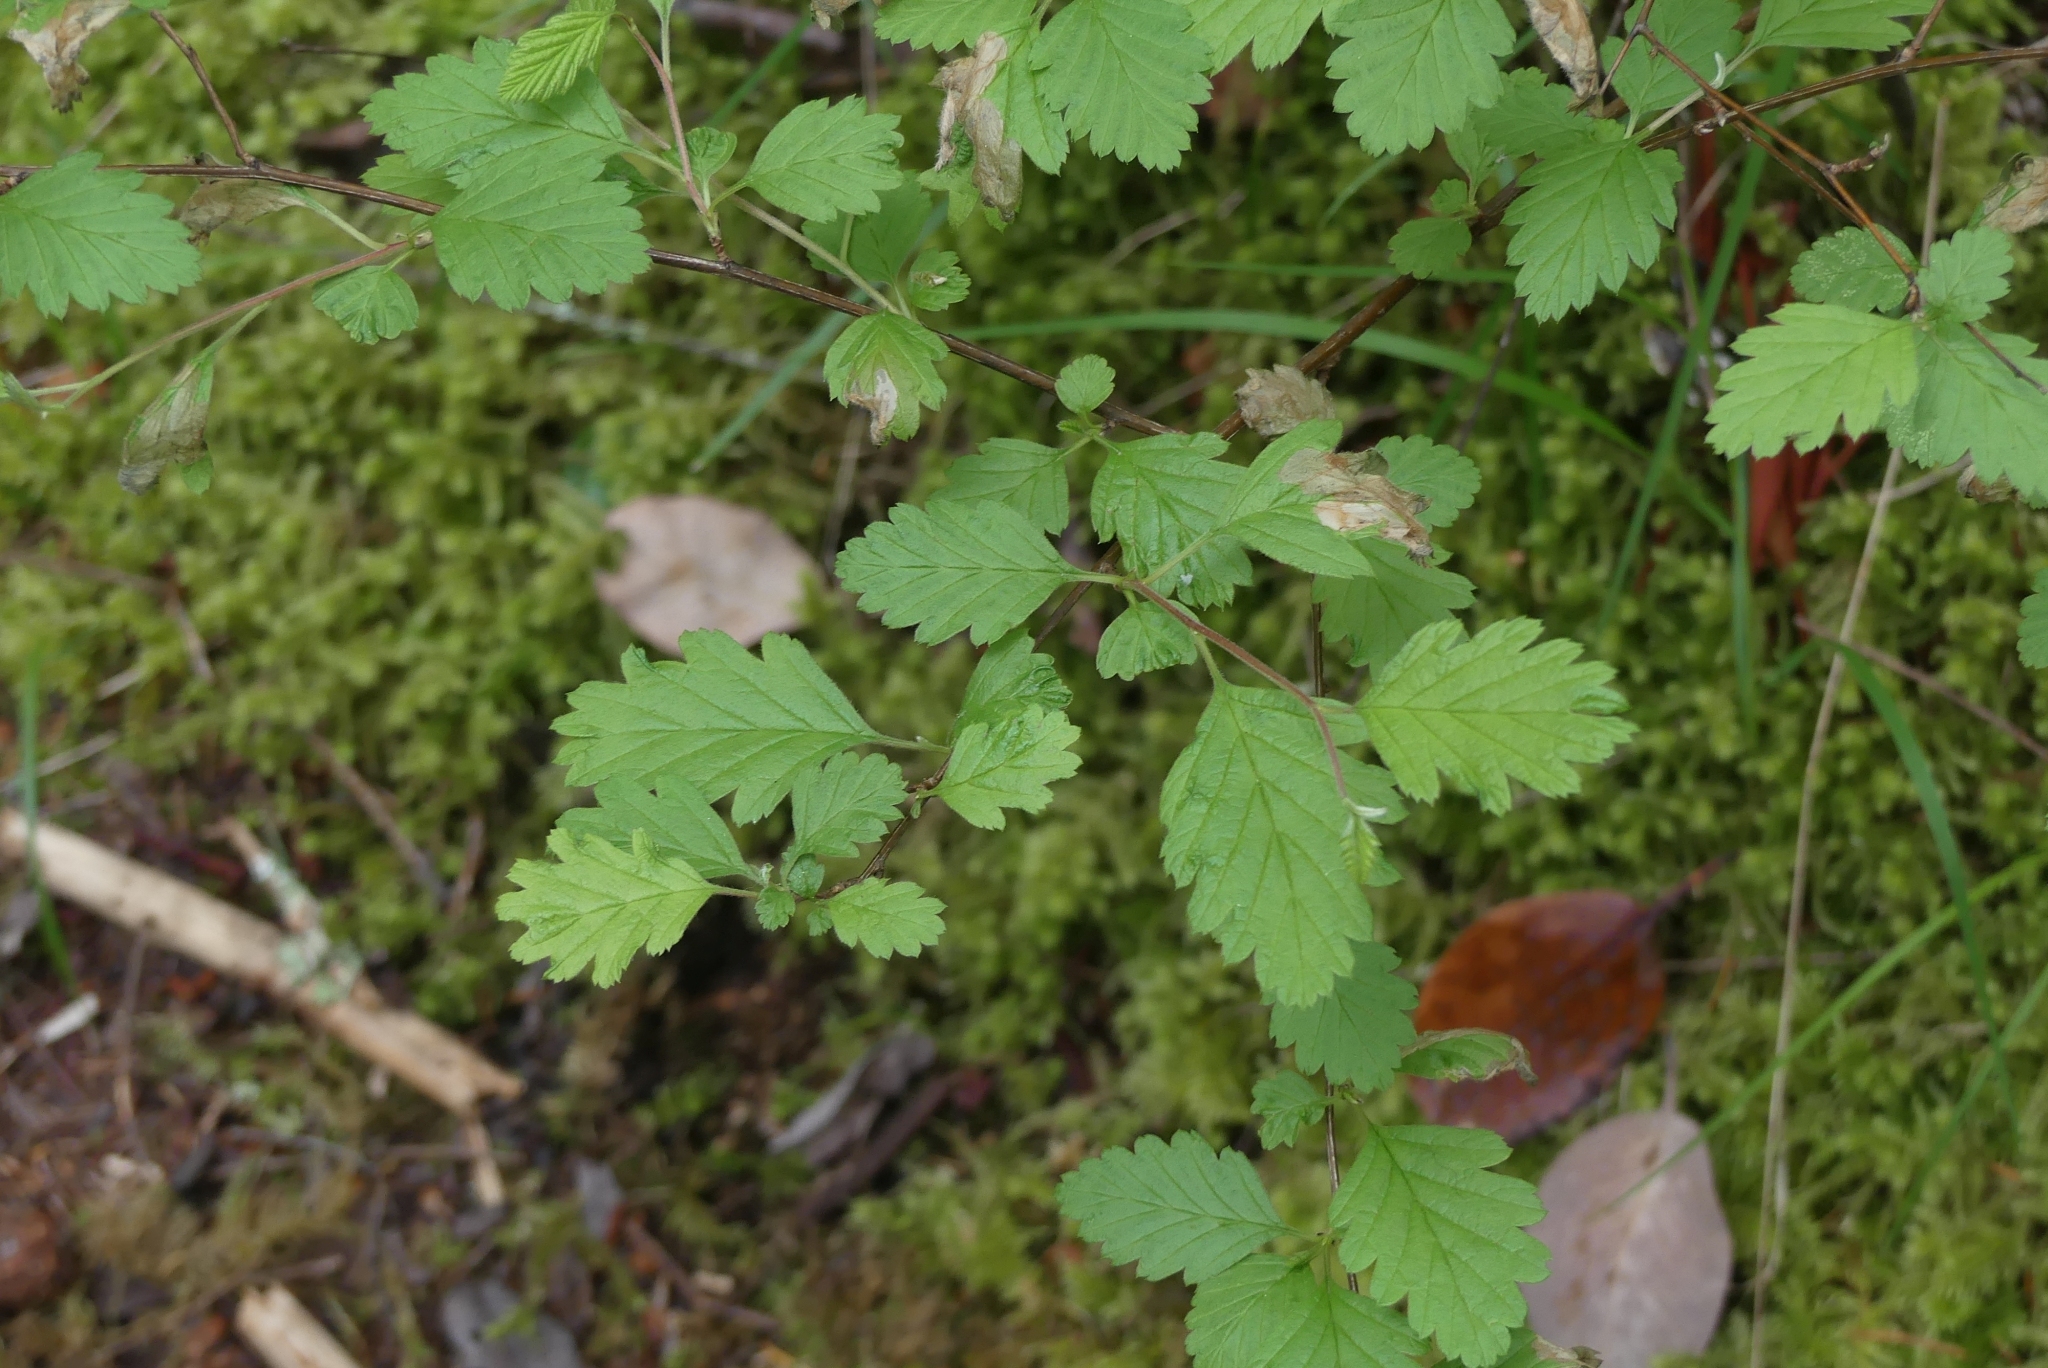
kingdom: Plantae
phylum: Tracheophyta
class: Magnoliopsida
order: Rosales
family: Rosaceae
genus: Holodiscus
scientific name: Holodiscus discolor
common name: Oceanspray
